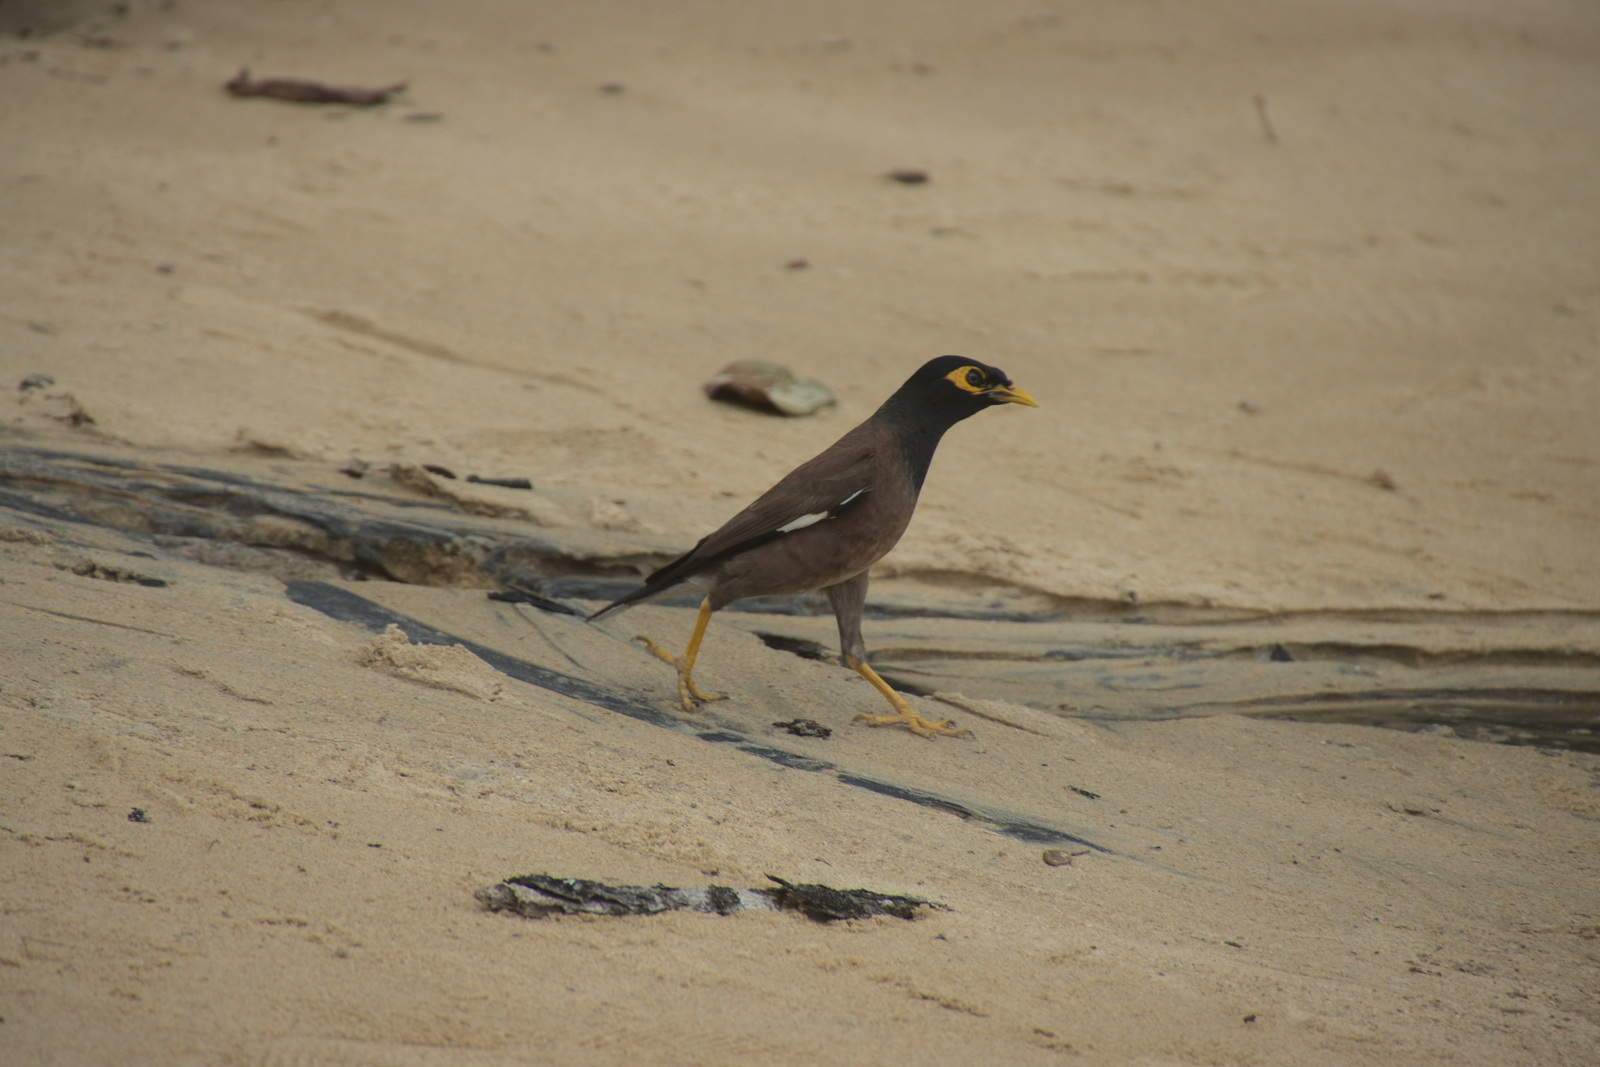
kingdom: Animalia
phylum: Chordata
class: Aves
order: Passeriformes
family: Sturnidae
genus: Acridotheres
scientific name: Acridotheres tristis
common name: Common myna
